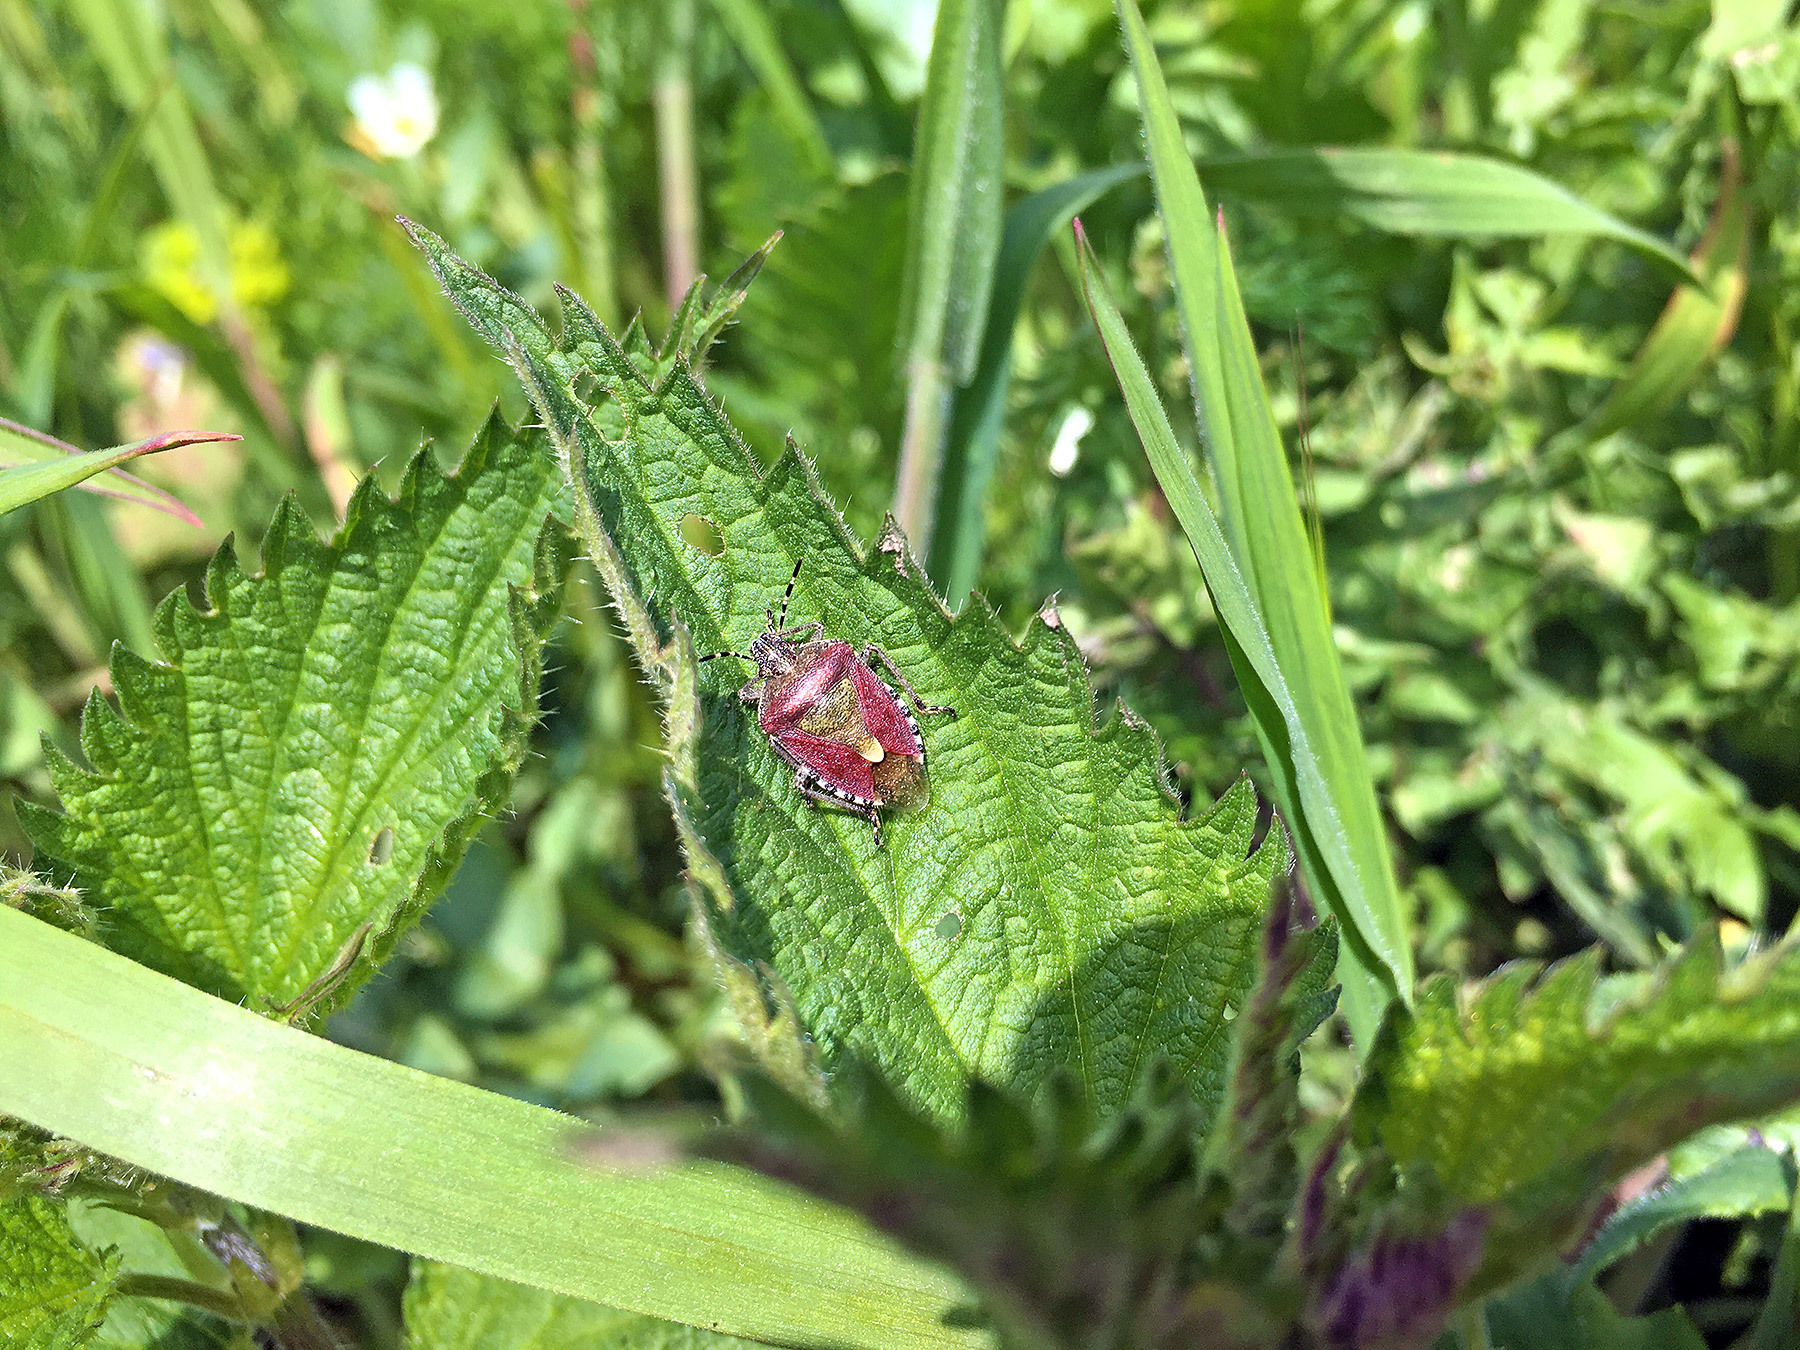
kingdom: Animalia
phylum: Arthropoda
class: Insecta
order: Hemiptera
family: Pentatomidae
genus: Dolycoris
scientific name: Dolycoris baccarum
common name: Sloe bug
